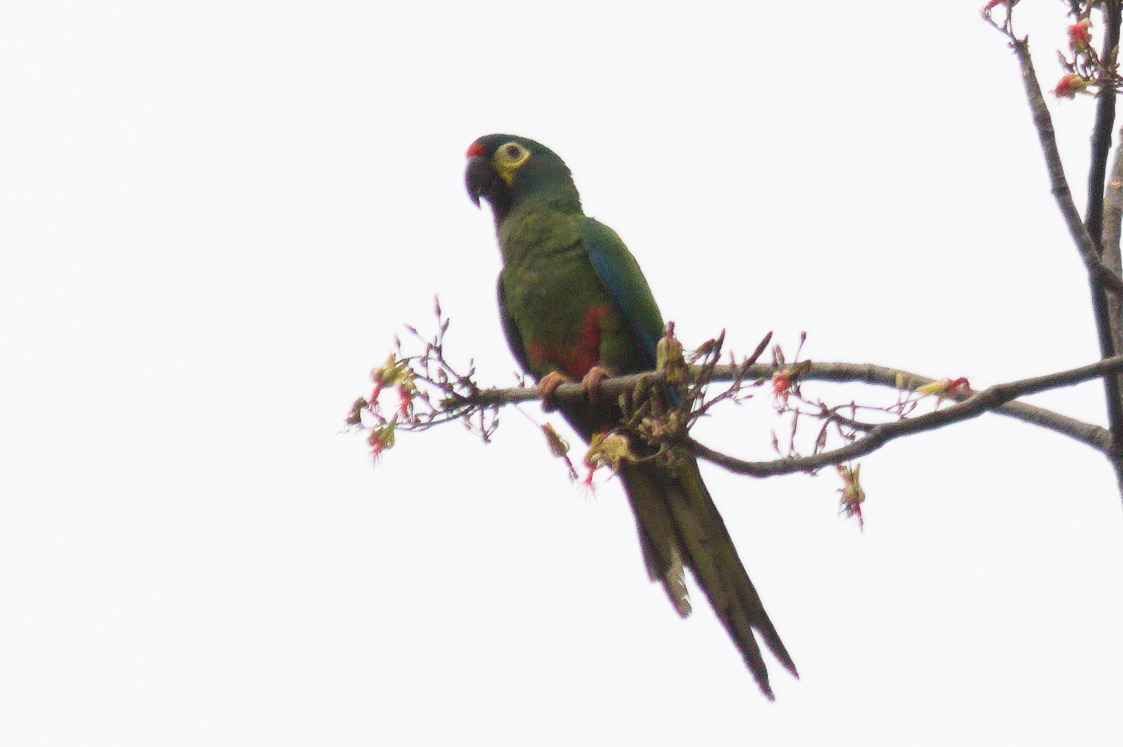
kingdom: Animalia
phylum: Chordata
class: Aves
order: Psittaciformes
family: Psittacidae
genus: Primolius
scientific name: Primolius maracana
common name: Blue-winged macaw
